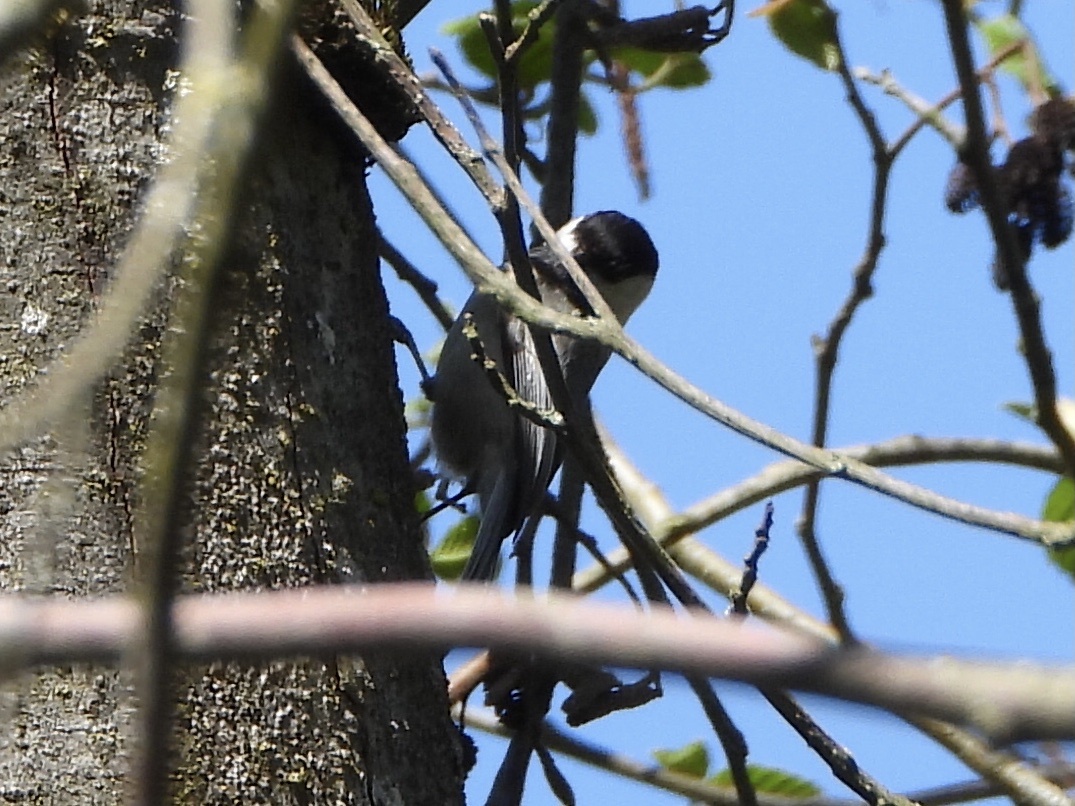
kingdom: Animalia
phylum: Chordata
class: Aves
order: Passeriformes
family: Paridae
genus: Poecile
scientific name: Poecile atricapillus
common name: Black-capped chickadee
